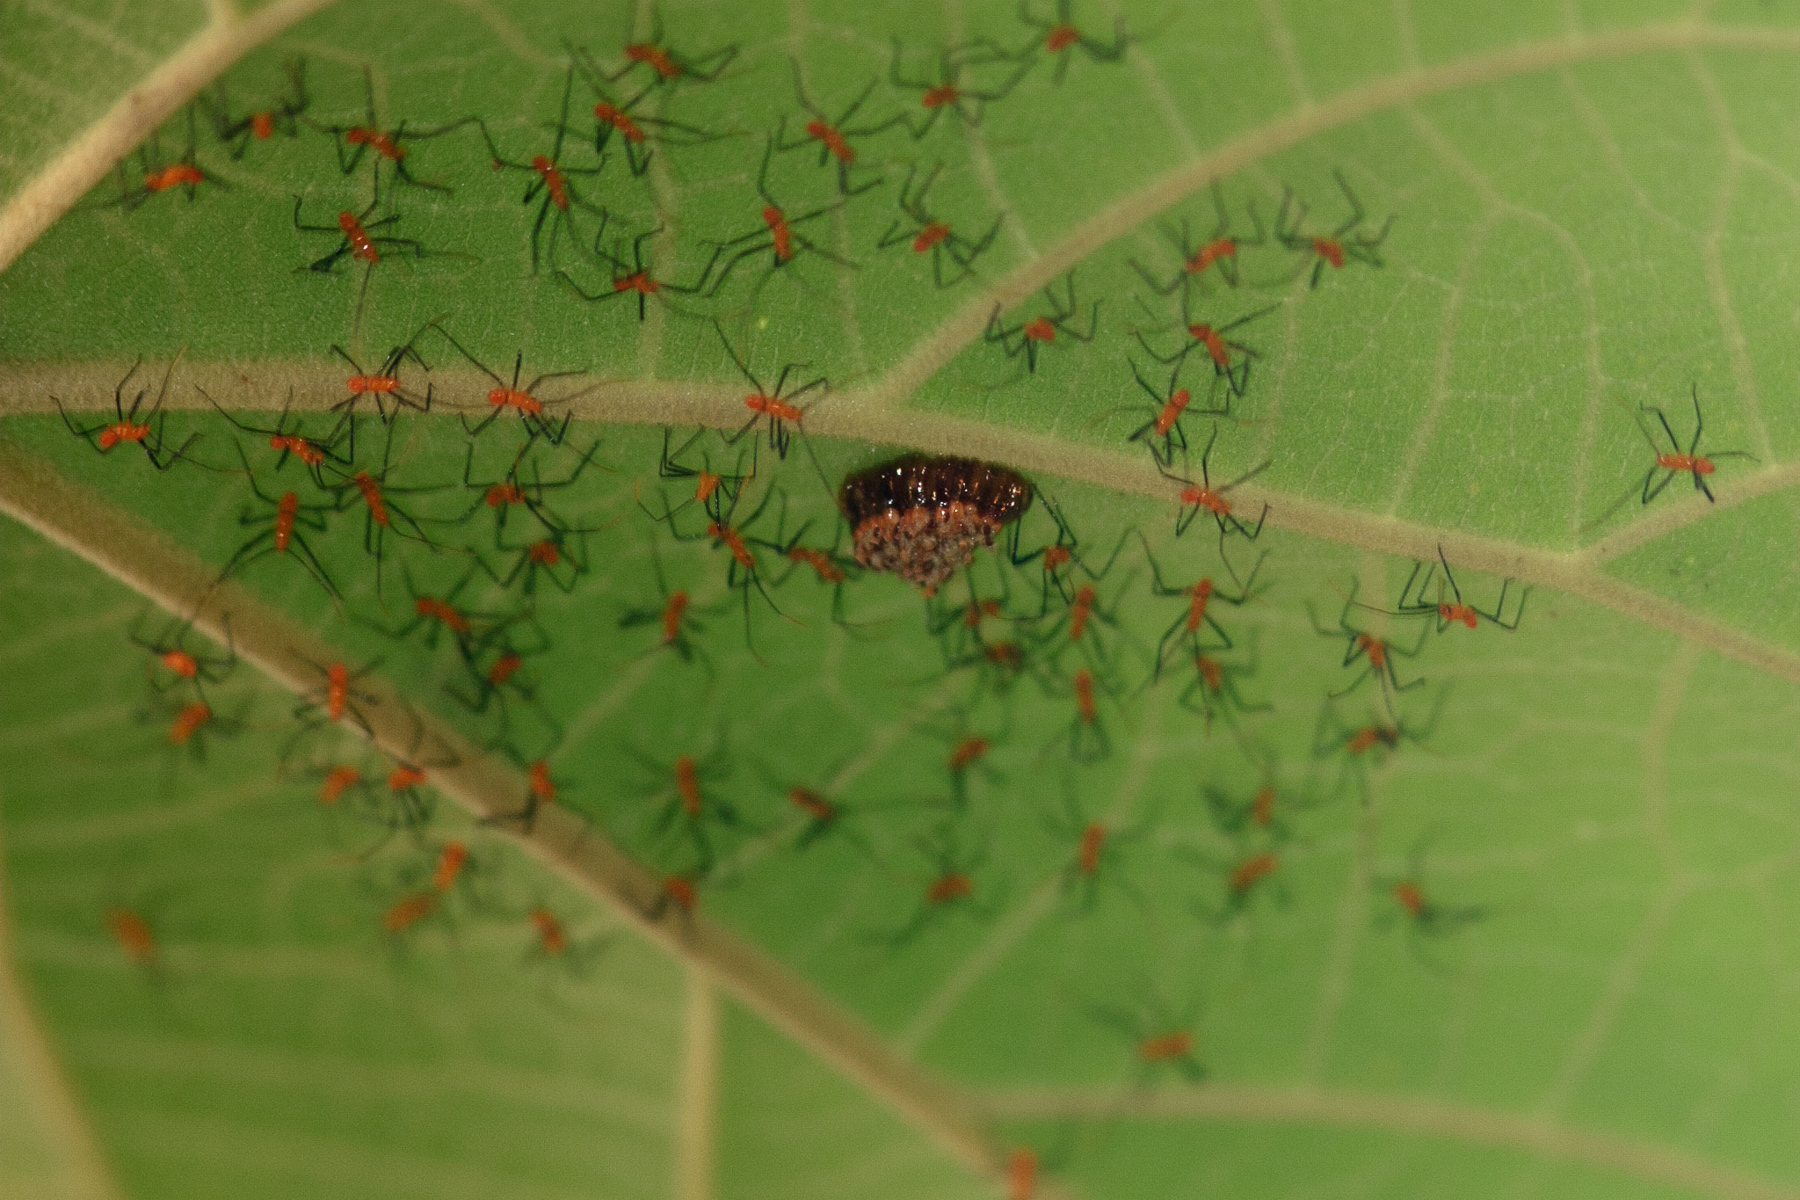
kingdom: Animalia
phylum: Arthropoda
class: Insecta
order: Hemiptera
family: Reduviidae
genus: Zelus
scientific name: Zelus longipes
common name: Milkweed assassin bug
